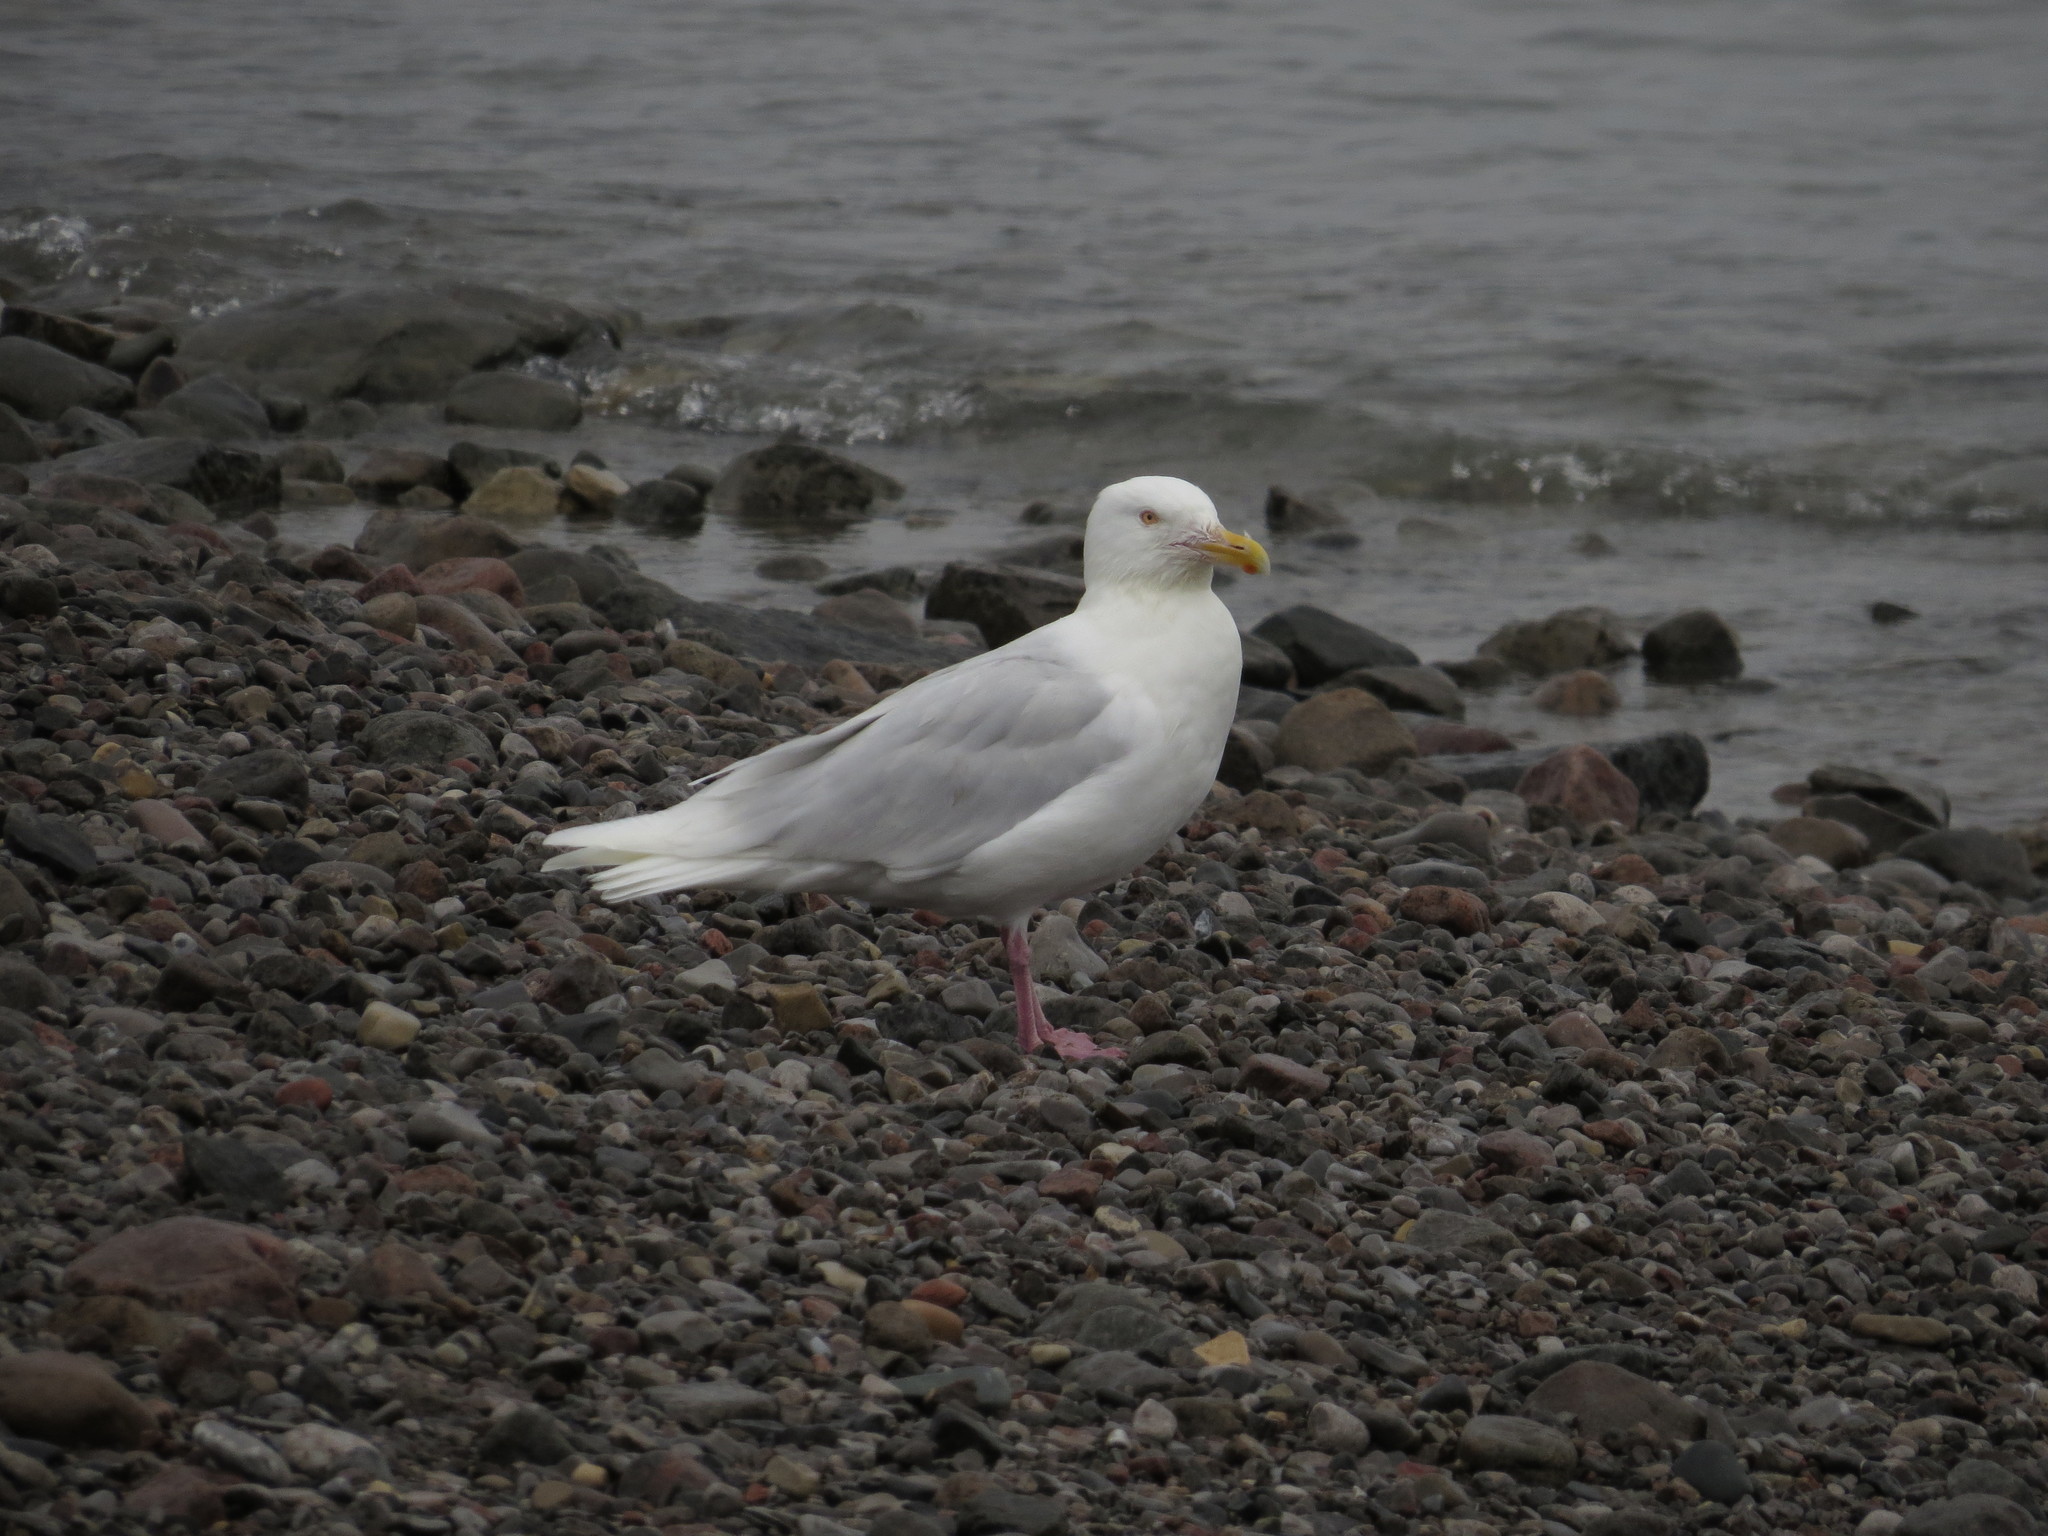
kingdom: Animalia
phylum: Chordata
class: Aves
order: Charadriiformes
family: Laridae
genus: Larus
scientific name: Larus hyperboreus
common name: Glaucous gull
